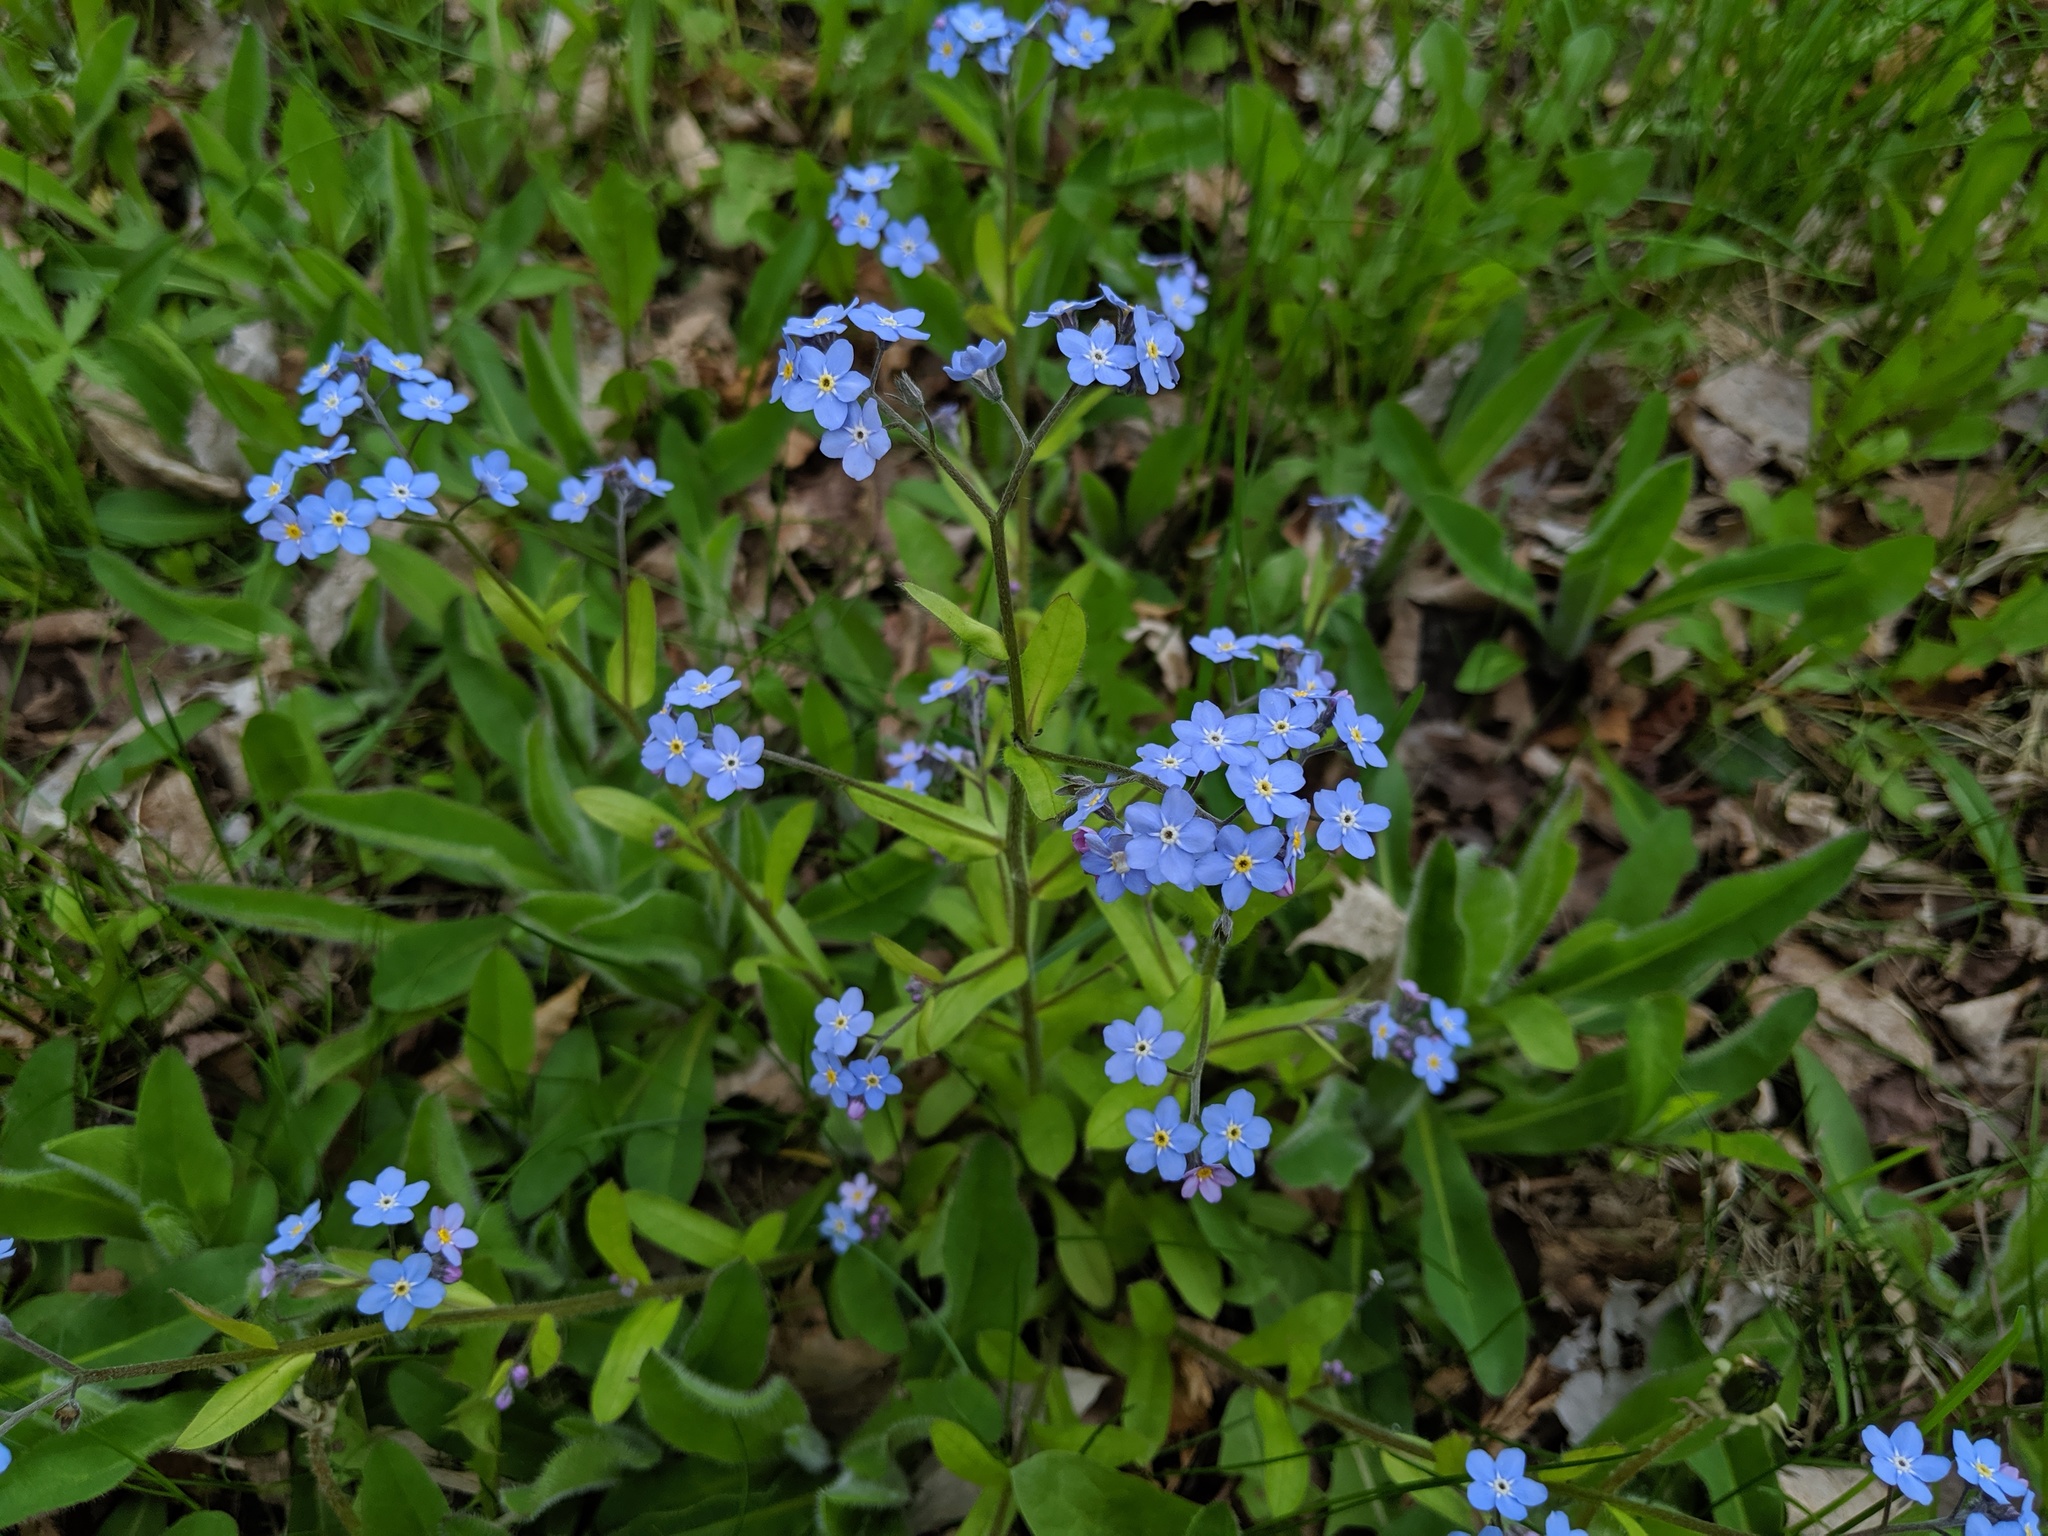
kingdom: Plantae
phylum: Tracheophyta
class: Magnoliopsida
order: Boraginales
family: Boraginaceae
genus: Myosotis
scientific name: Myosotis sylvatica
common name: Wood forget-me-not
